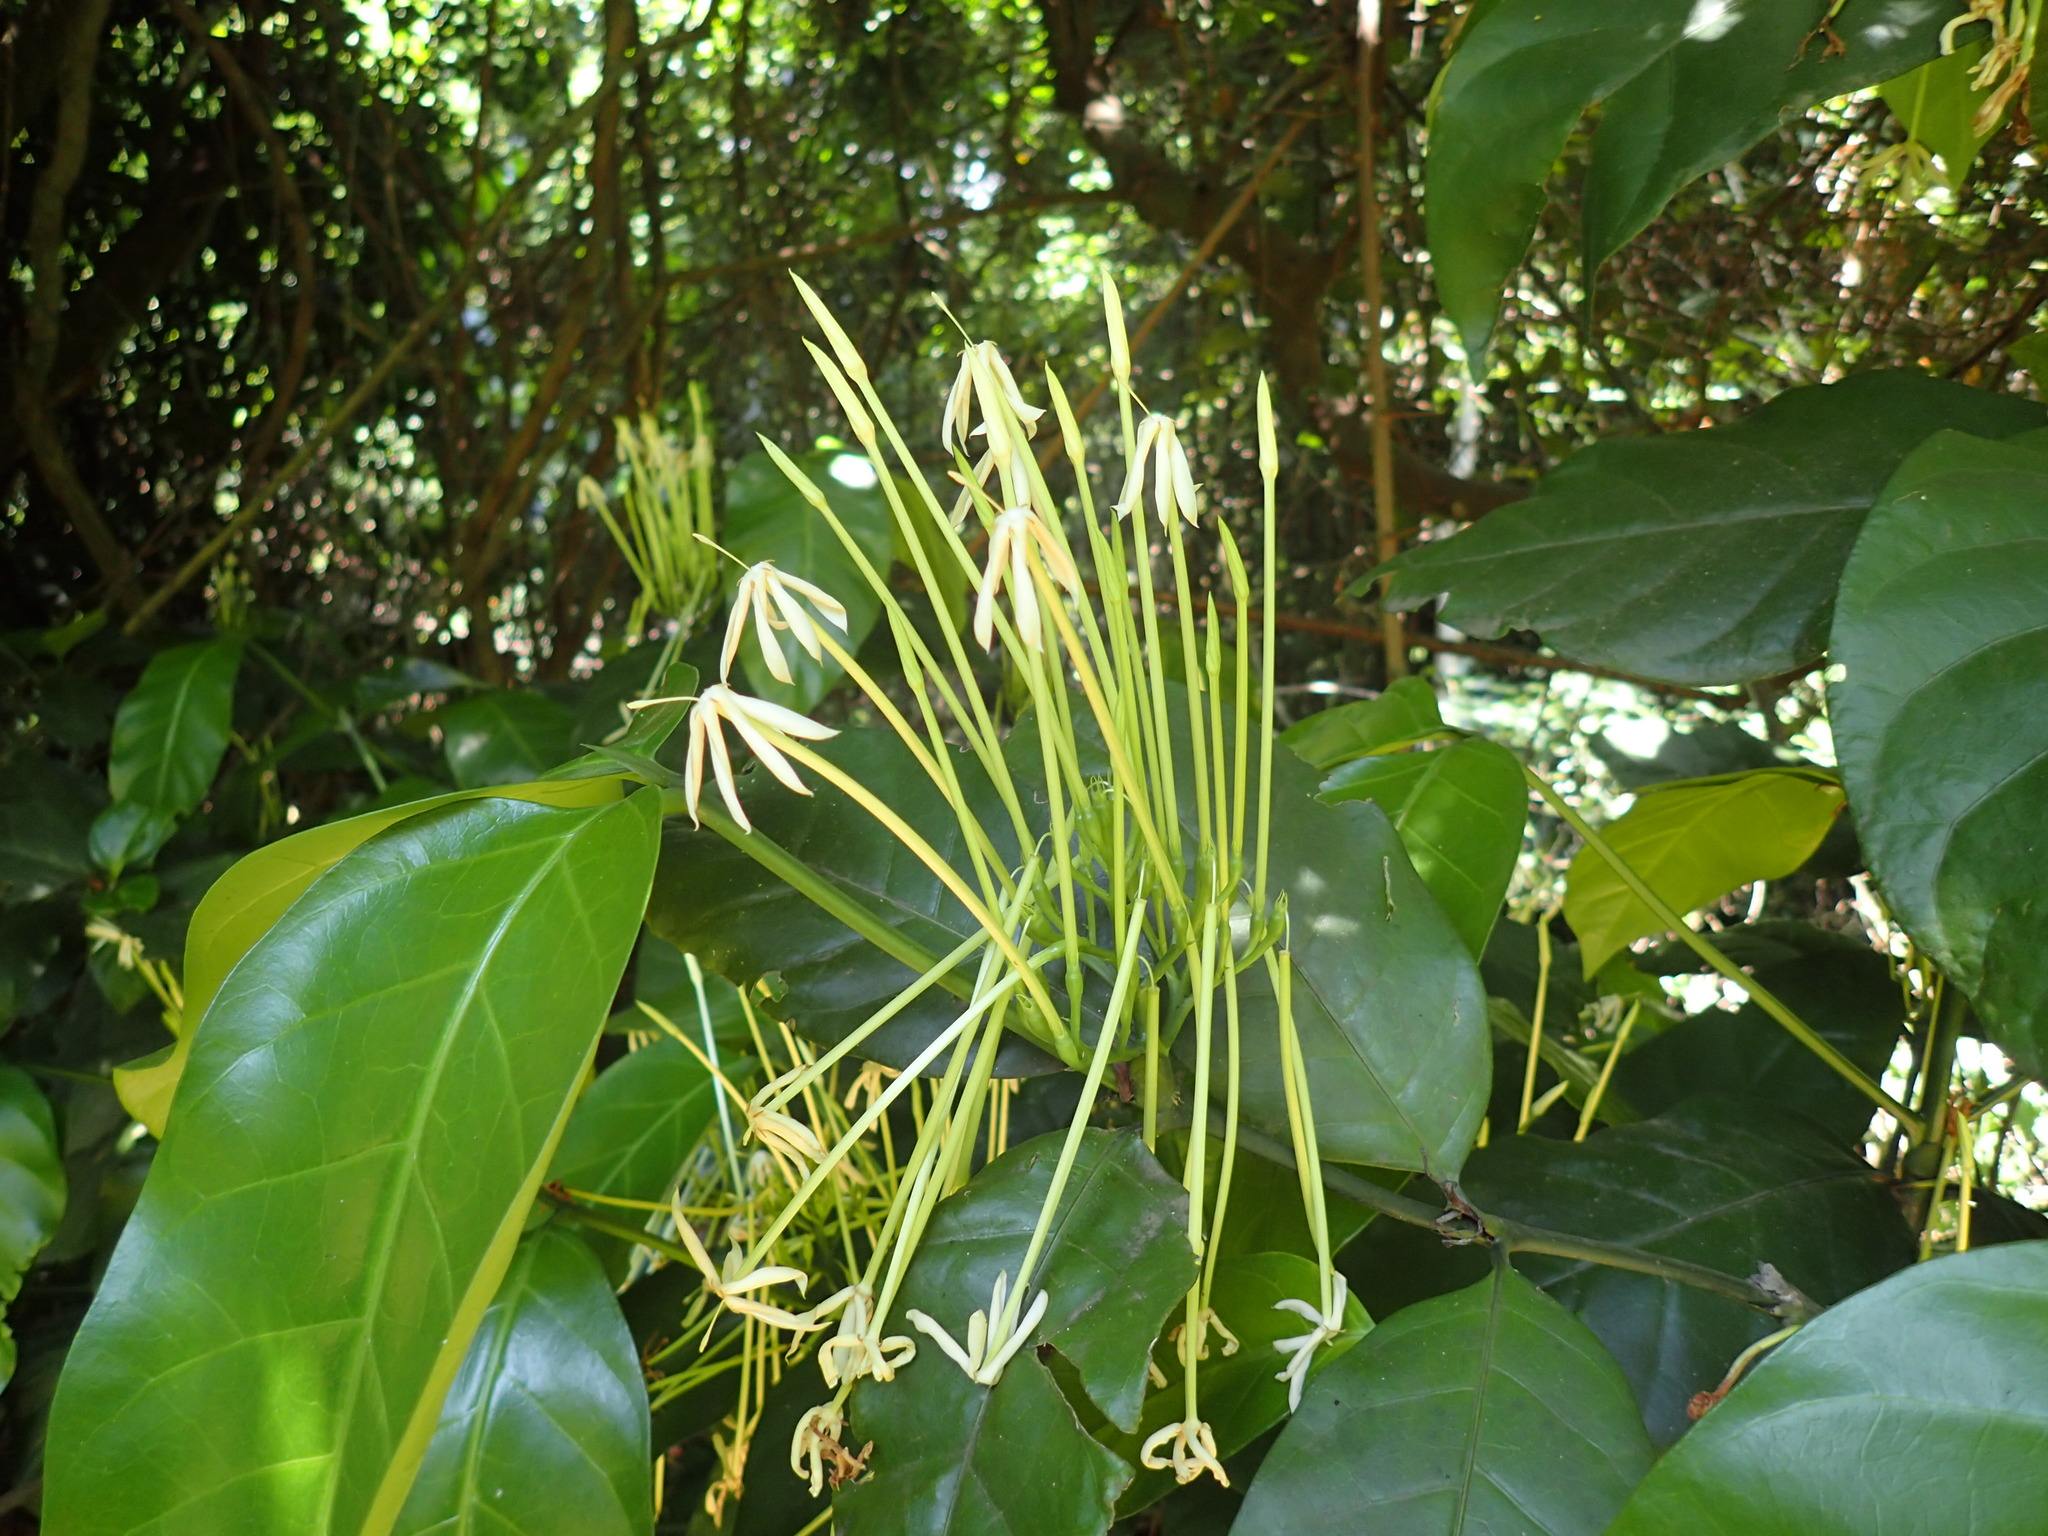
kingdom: Plantae
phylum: Tracheophyta
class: Magnoliopsida
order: Gentianales
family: Rubiaceae
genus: Oxyanthus
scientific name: Oxyanthus pyriformis
